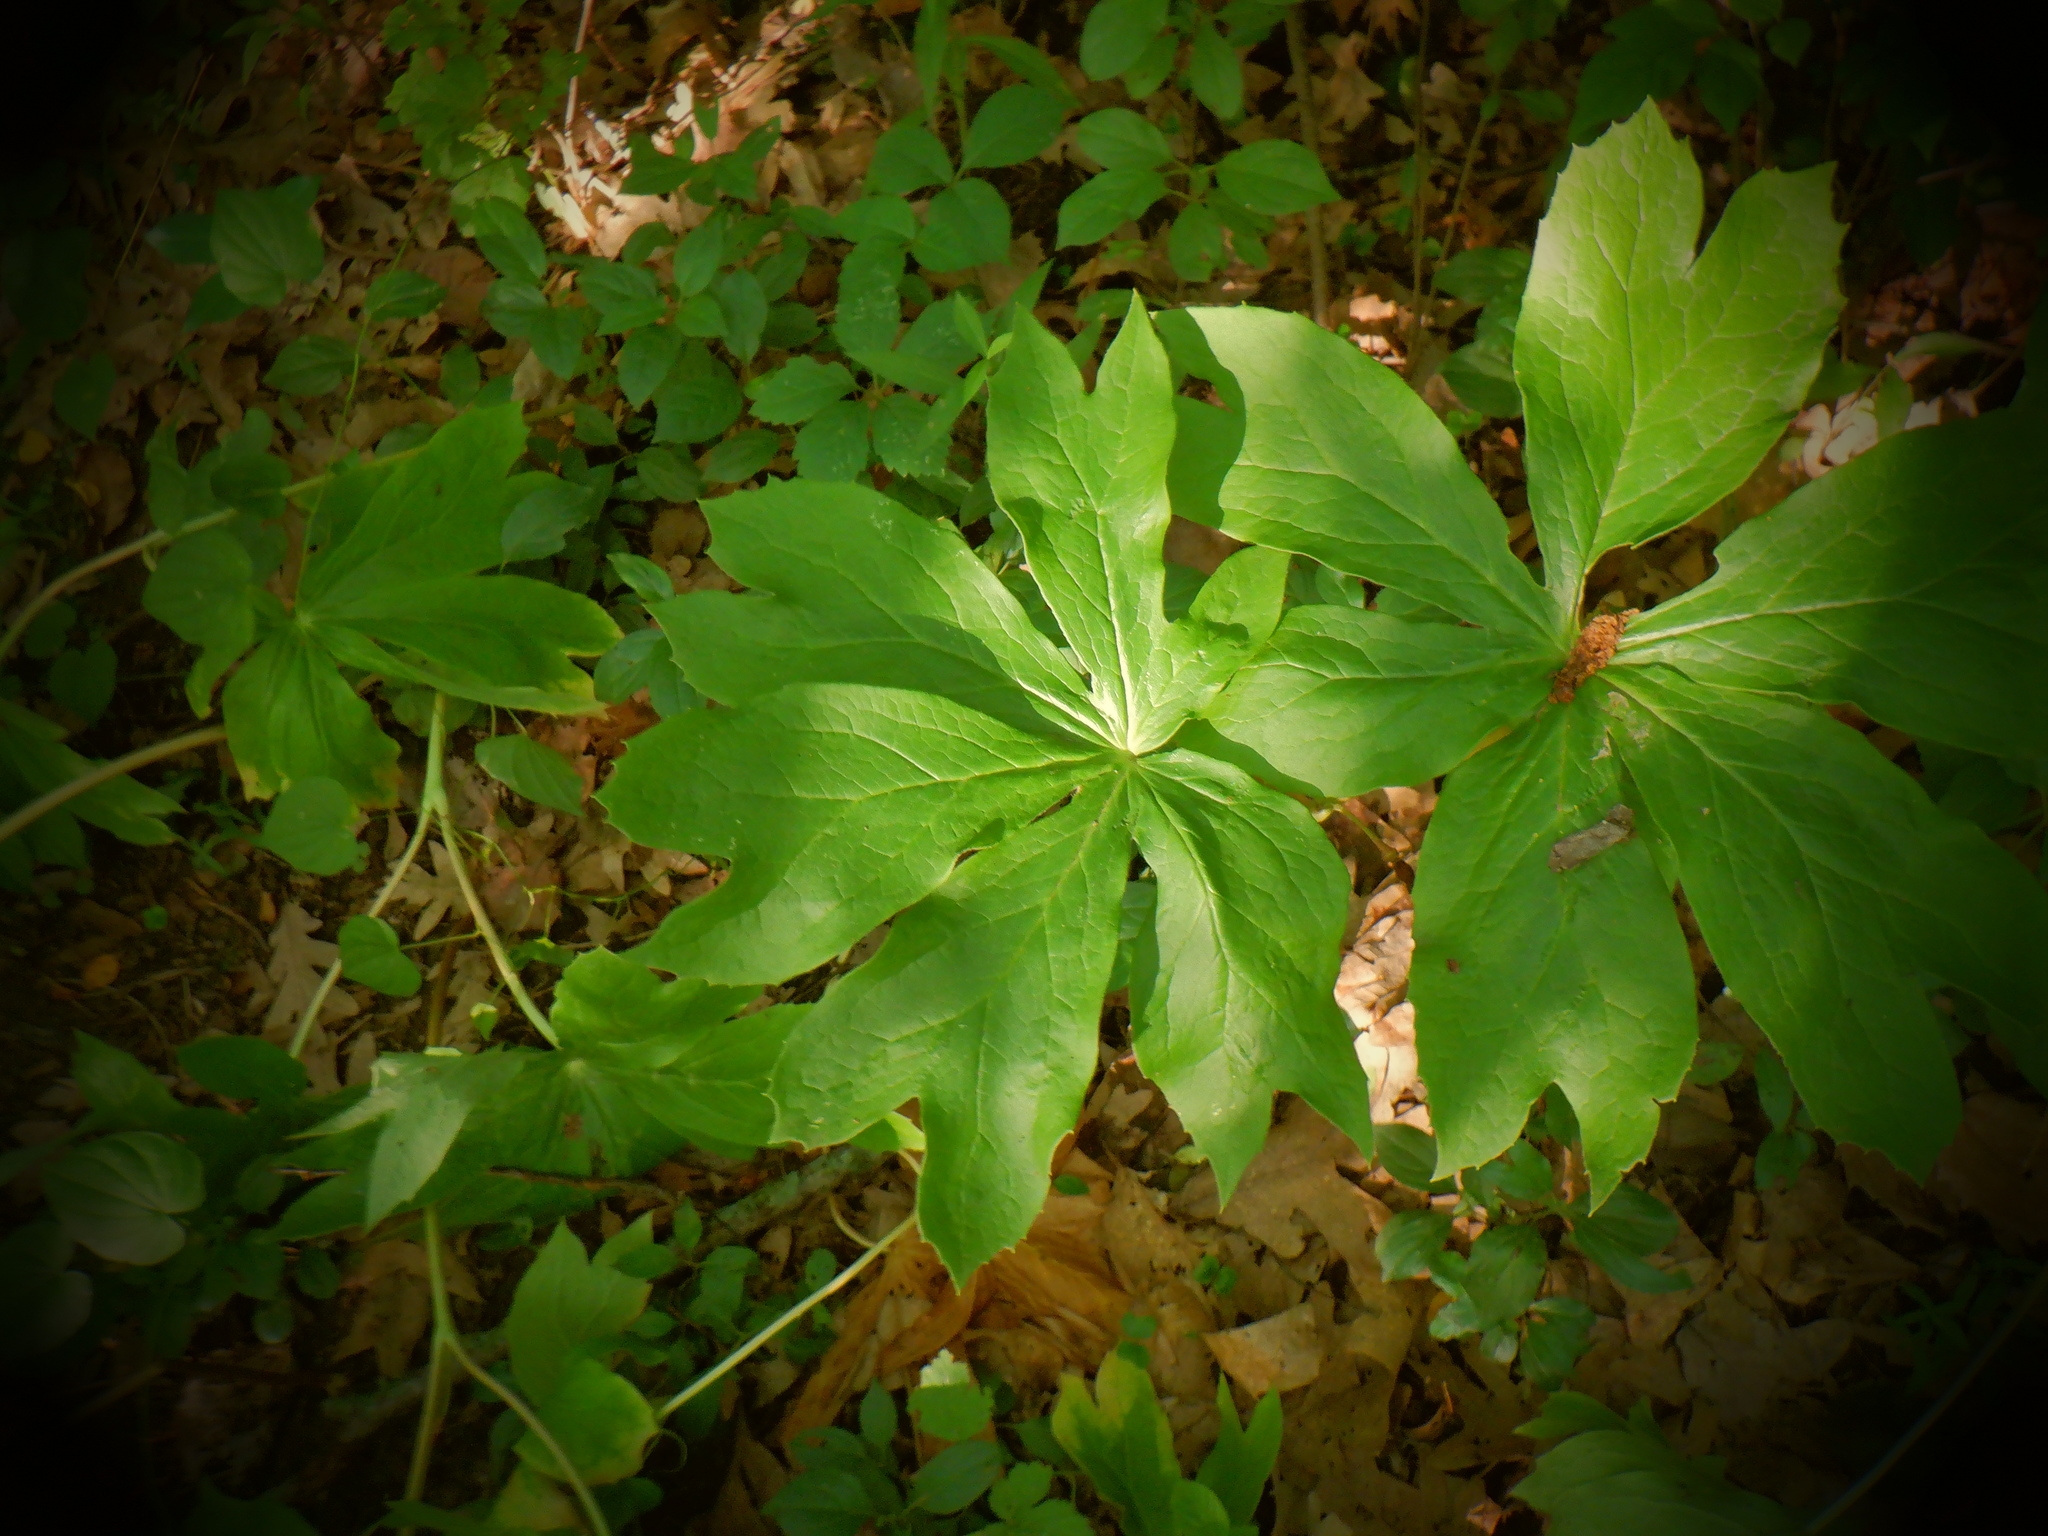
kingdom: Plantae
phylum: Tracheophyta
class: Magnoliopsida
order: Ranunculales
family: Berberidaceae
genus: Podophyllum
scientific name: Podophyllum peltatum
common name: Wild mandrake
